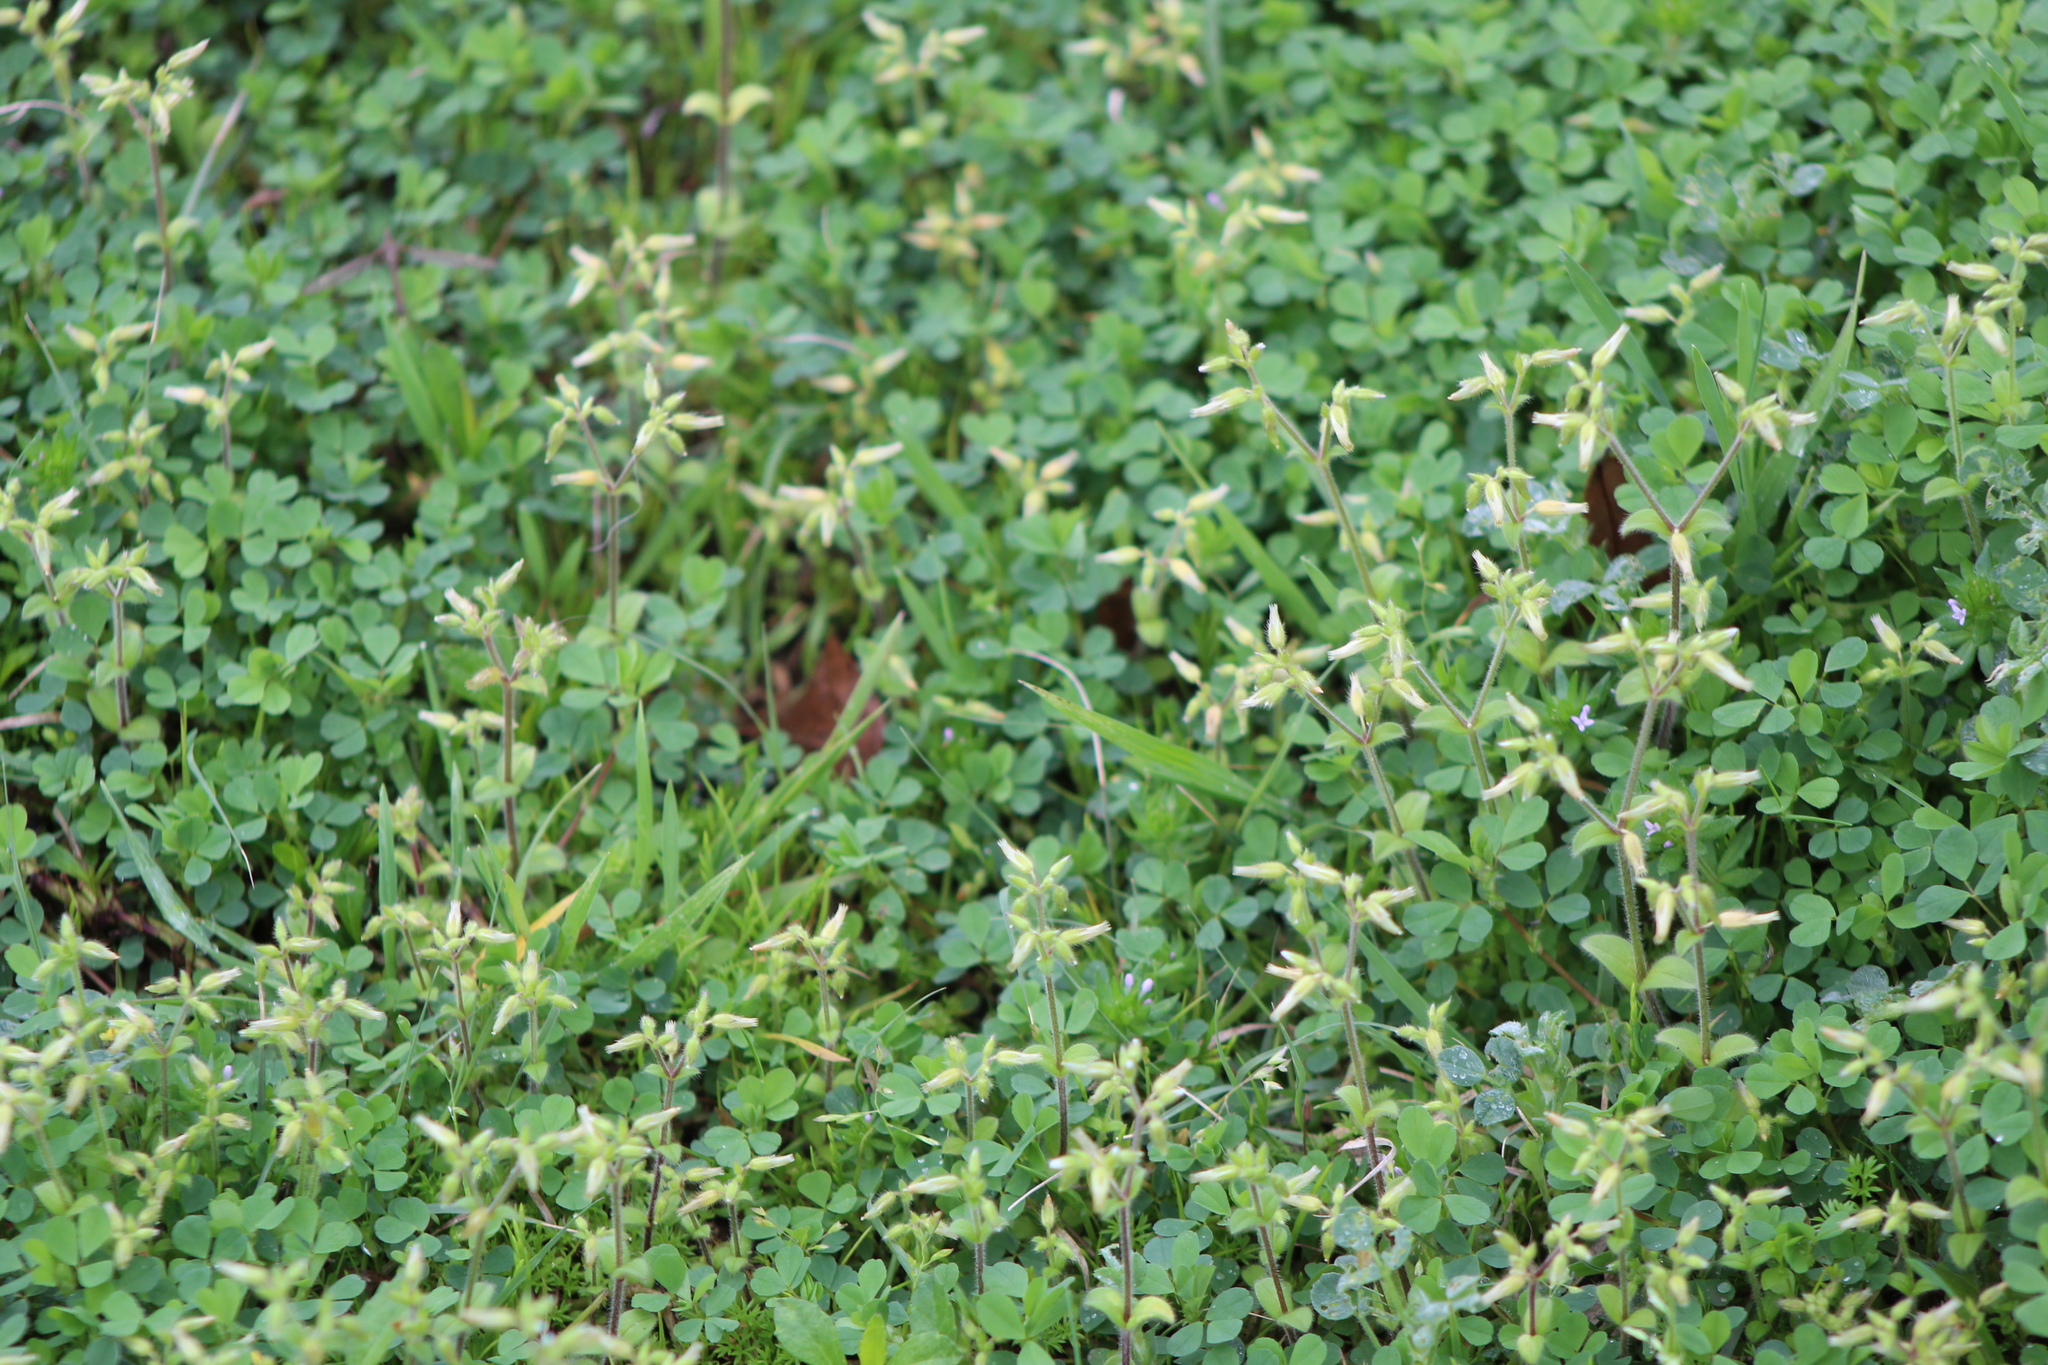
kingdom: Plantae
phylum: Tracheophyta
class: Magnoliopsida
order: Caryophyllales
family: Caryophyllaceae
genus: Cerastium
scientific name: Cerastium glomeratum
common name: Sticky chickweed
